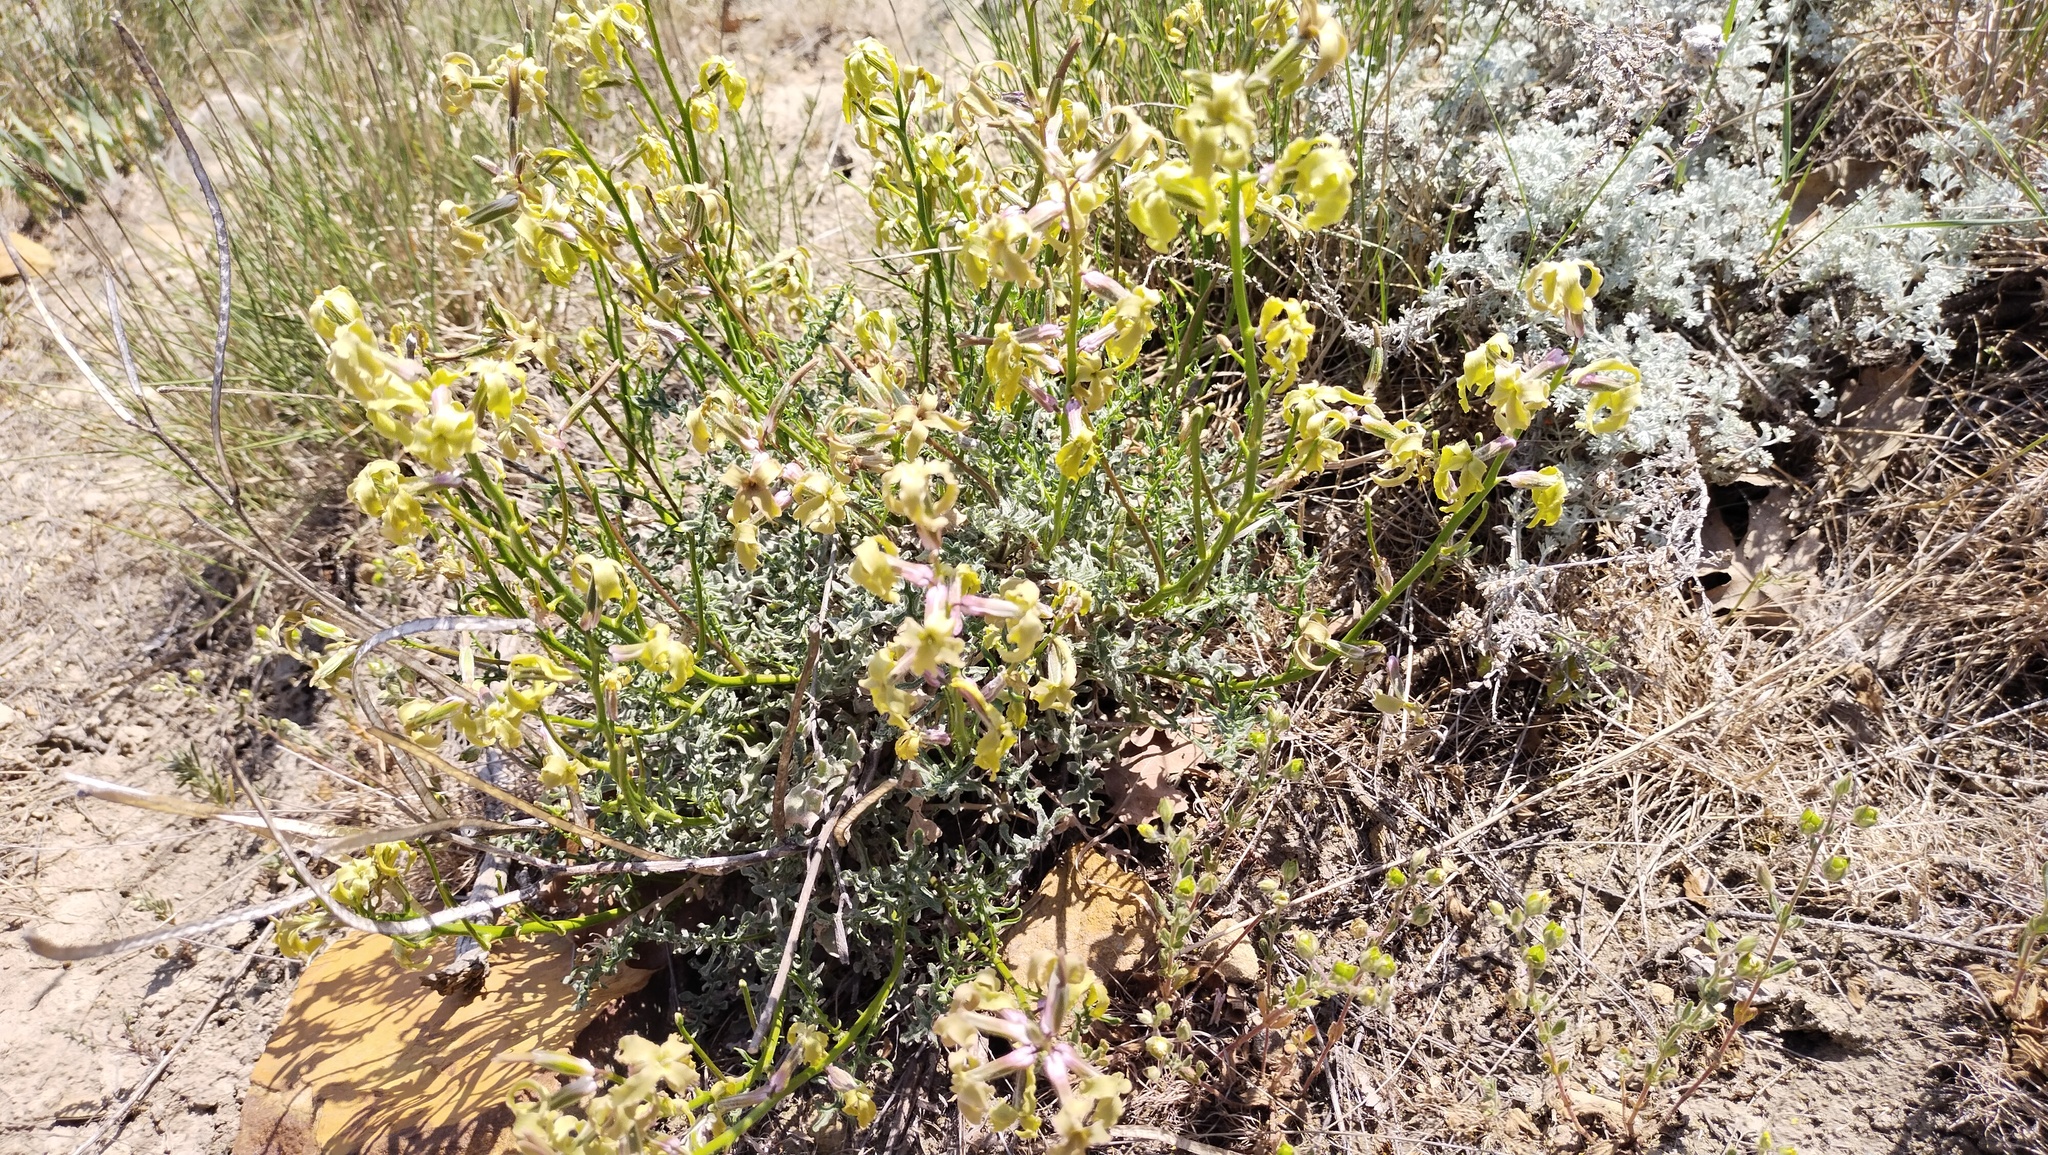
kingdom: Plantae
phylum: Tracheophyta
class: Magnoliopsida
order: Brassicales
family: Brassicaceae
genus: Matthiola
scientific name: Matthiola odoratissima
